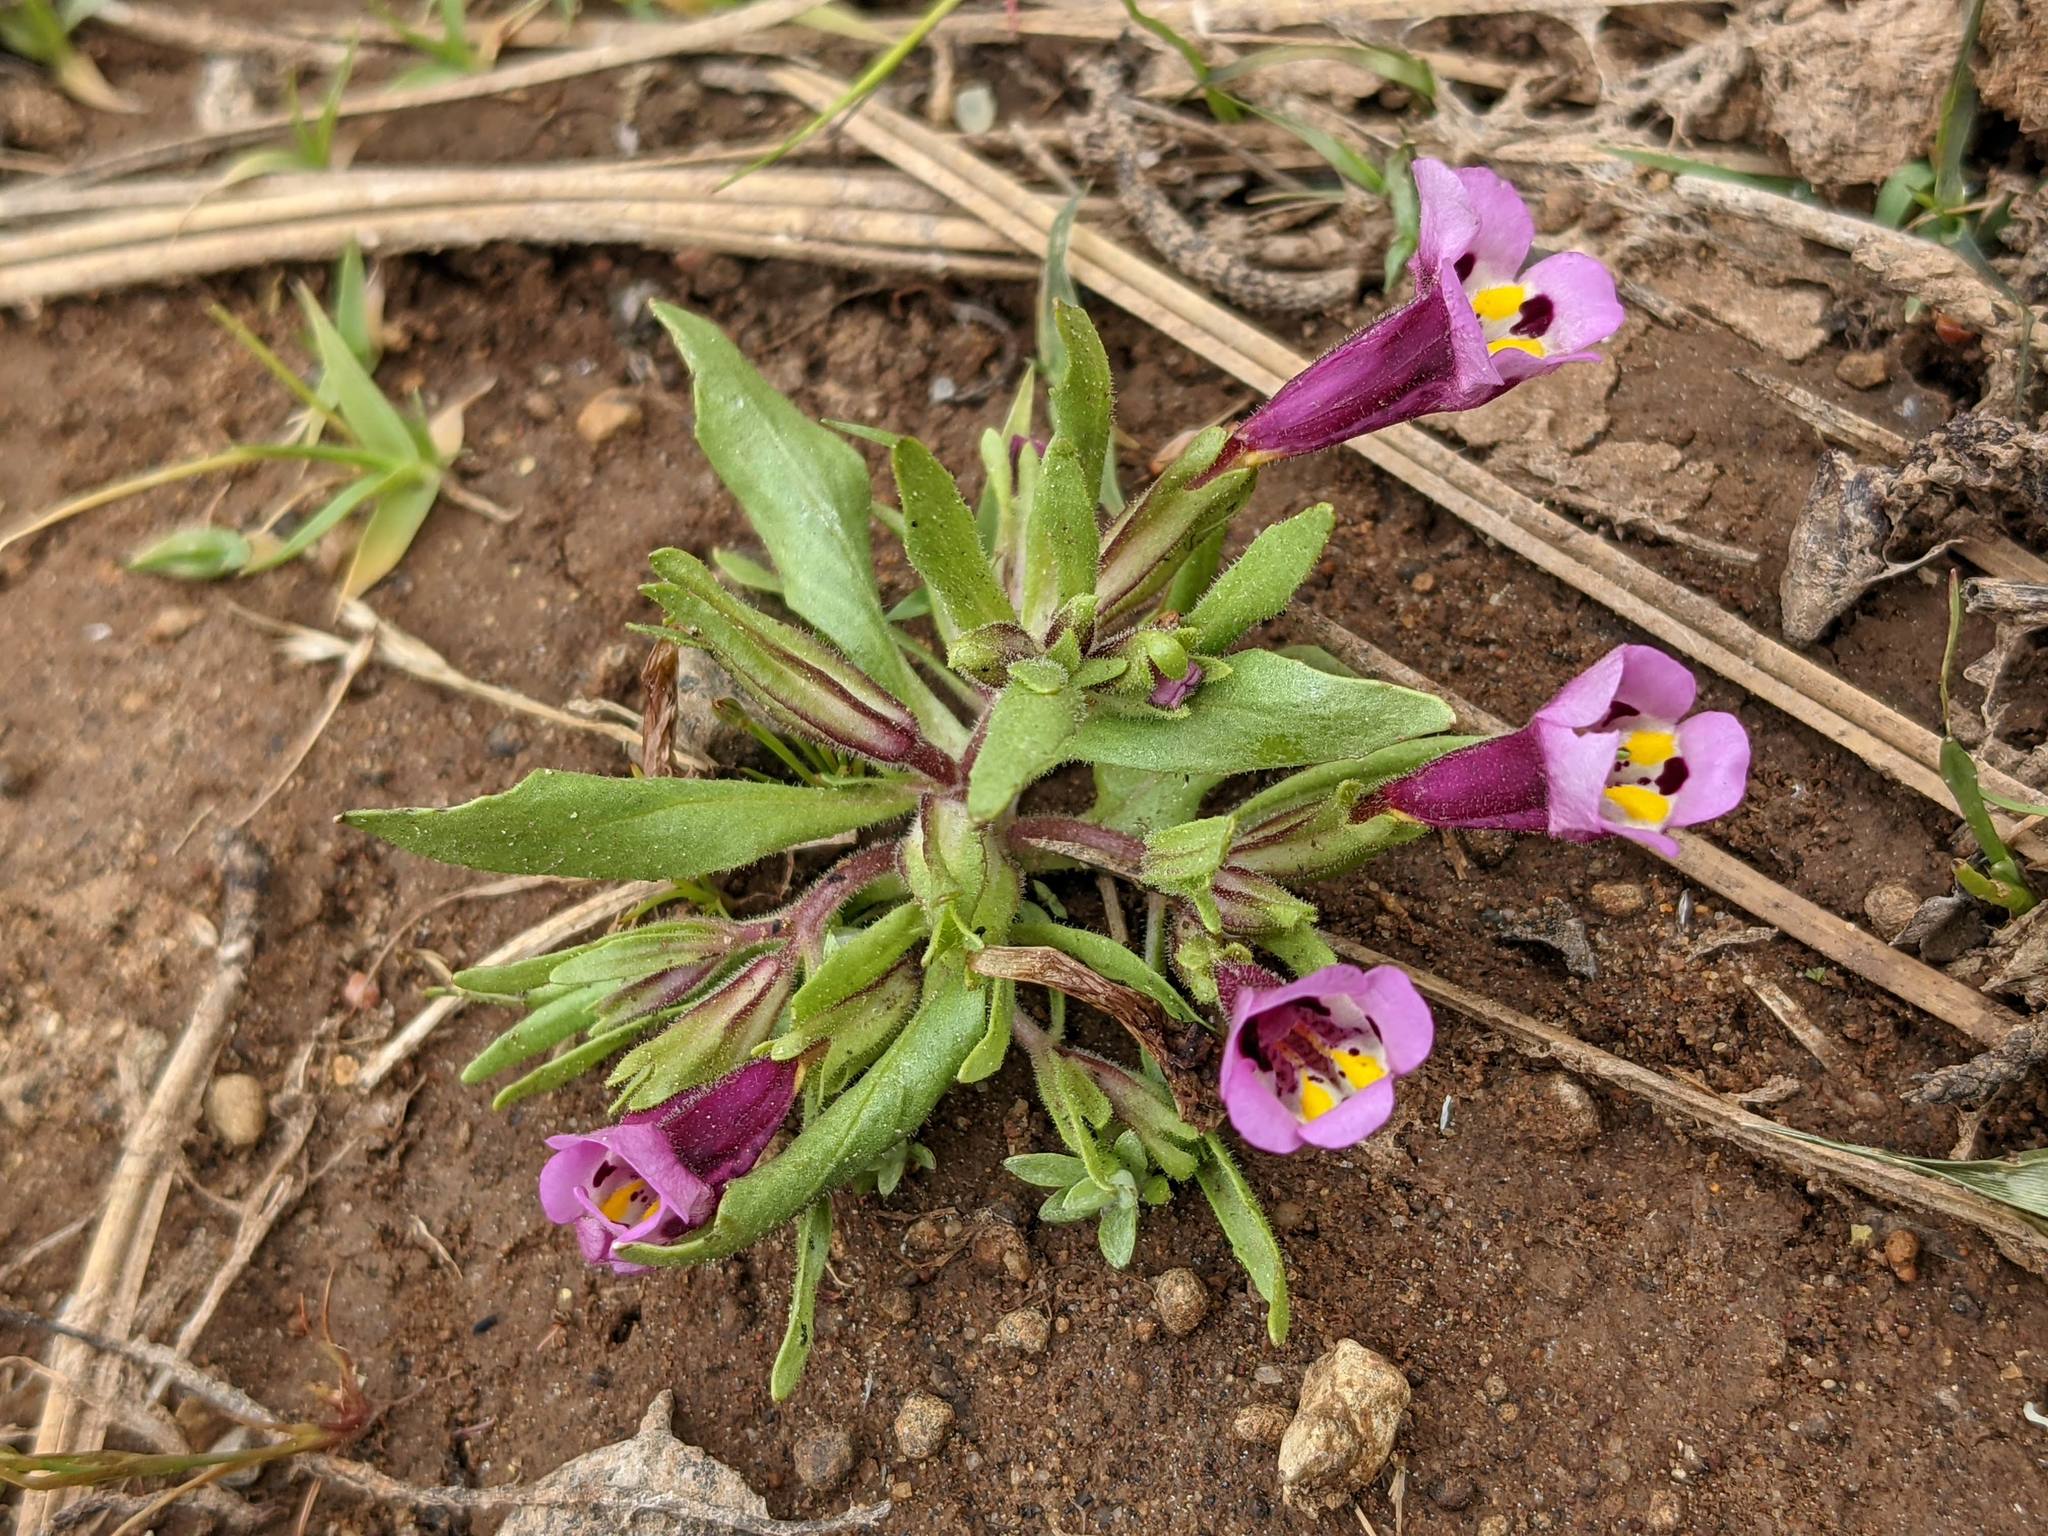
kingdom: Plantae
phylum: Tracheophyta
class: Magnoliopsida
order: Lamiales
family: Phrymaceae
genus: Diplacus
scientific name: Diplacus tricolor
